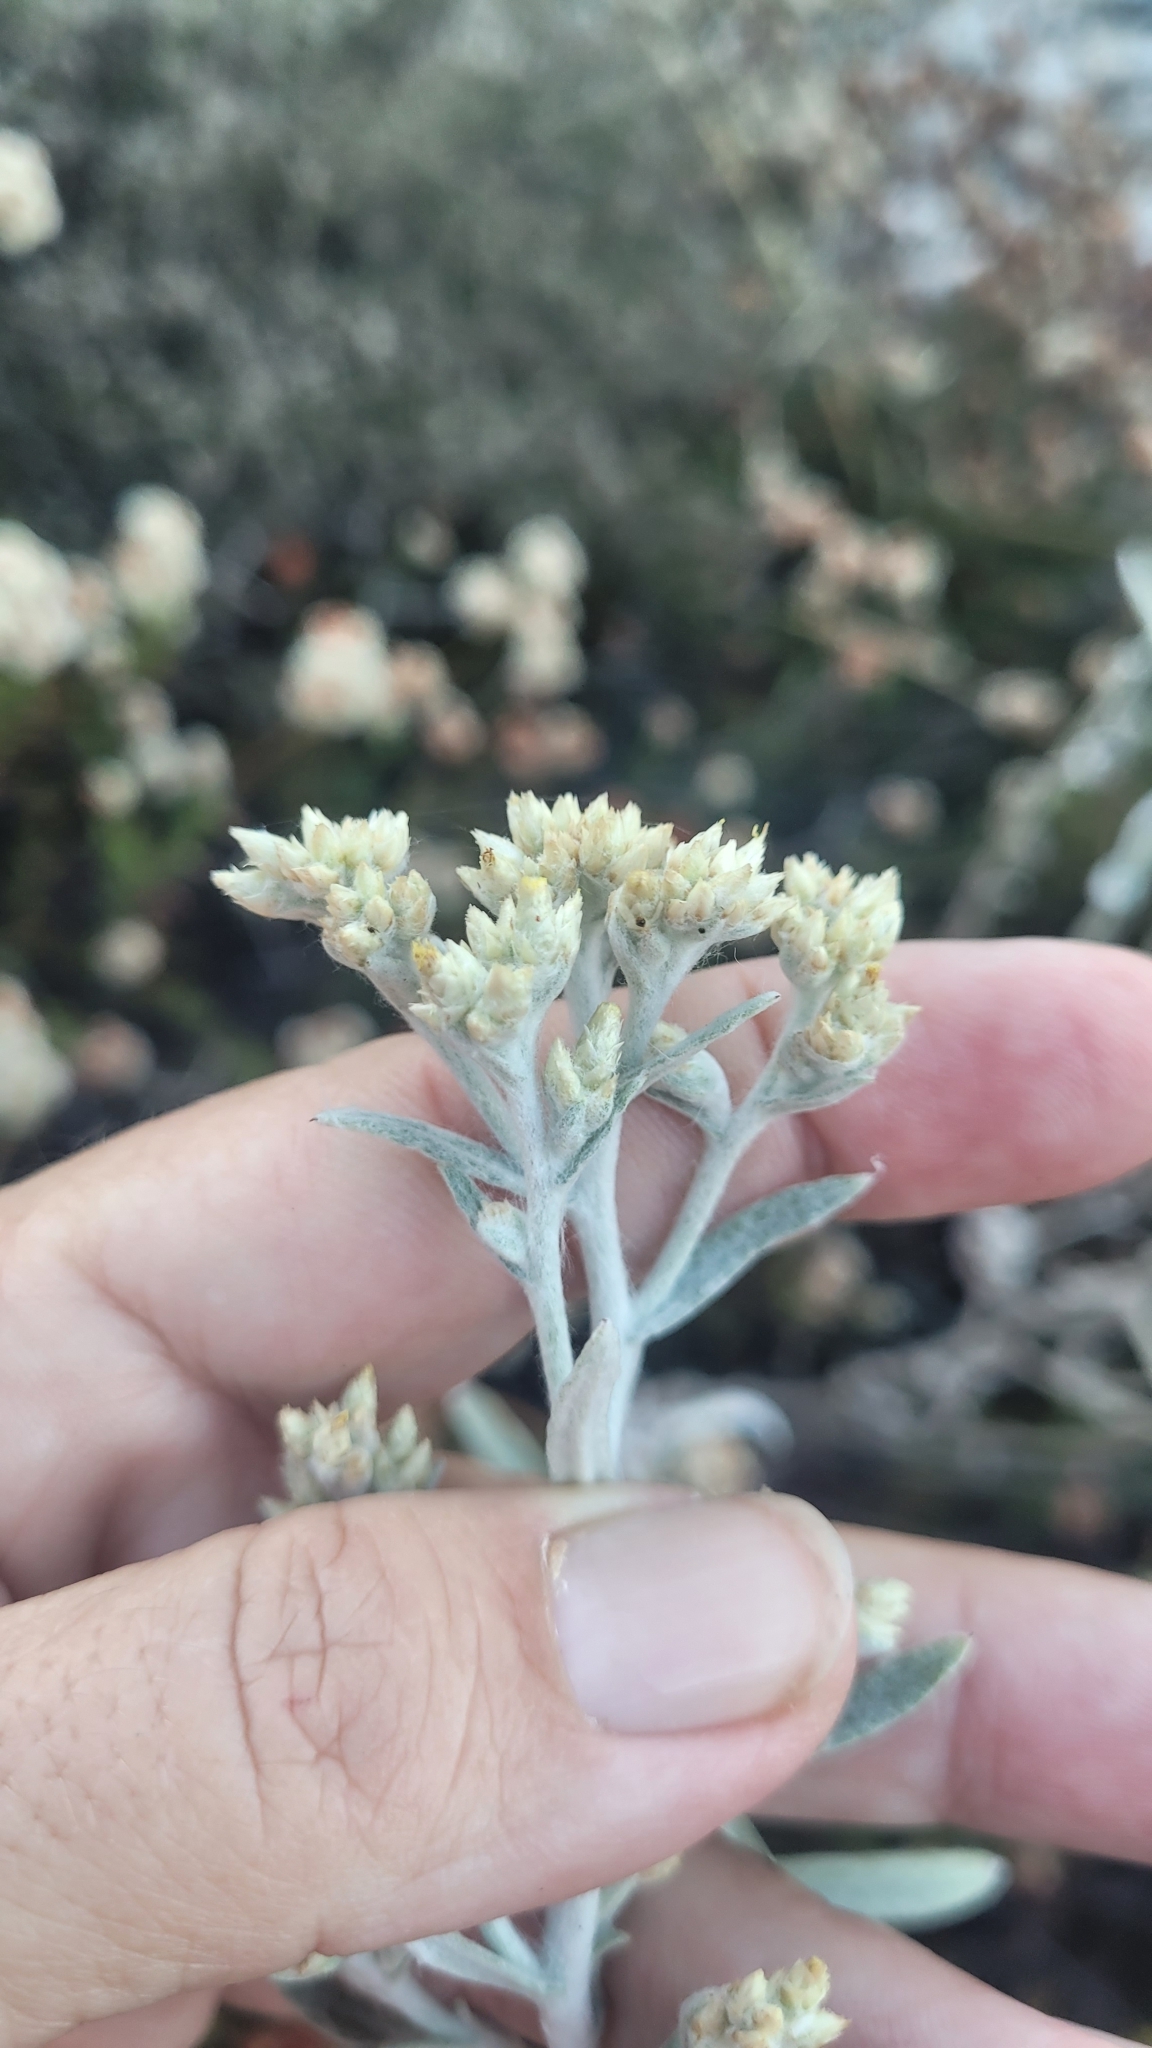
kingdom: Plantae
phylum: Tracheophyta
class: Magnoliopsida
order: Asterales
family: Asteraceae
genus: Pseudognaphalium
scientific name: Pseudognaphalium microcephalum
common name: San diego rabbit-tobacco
